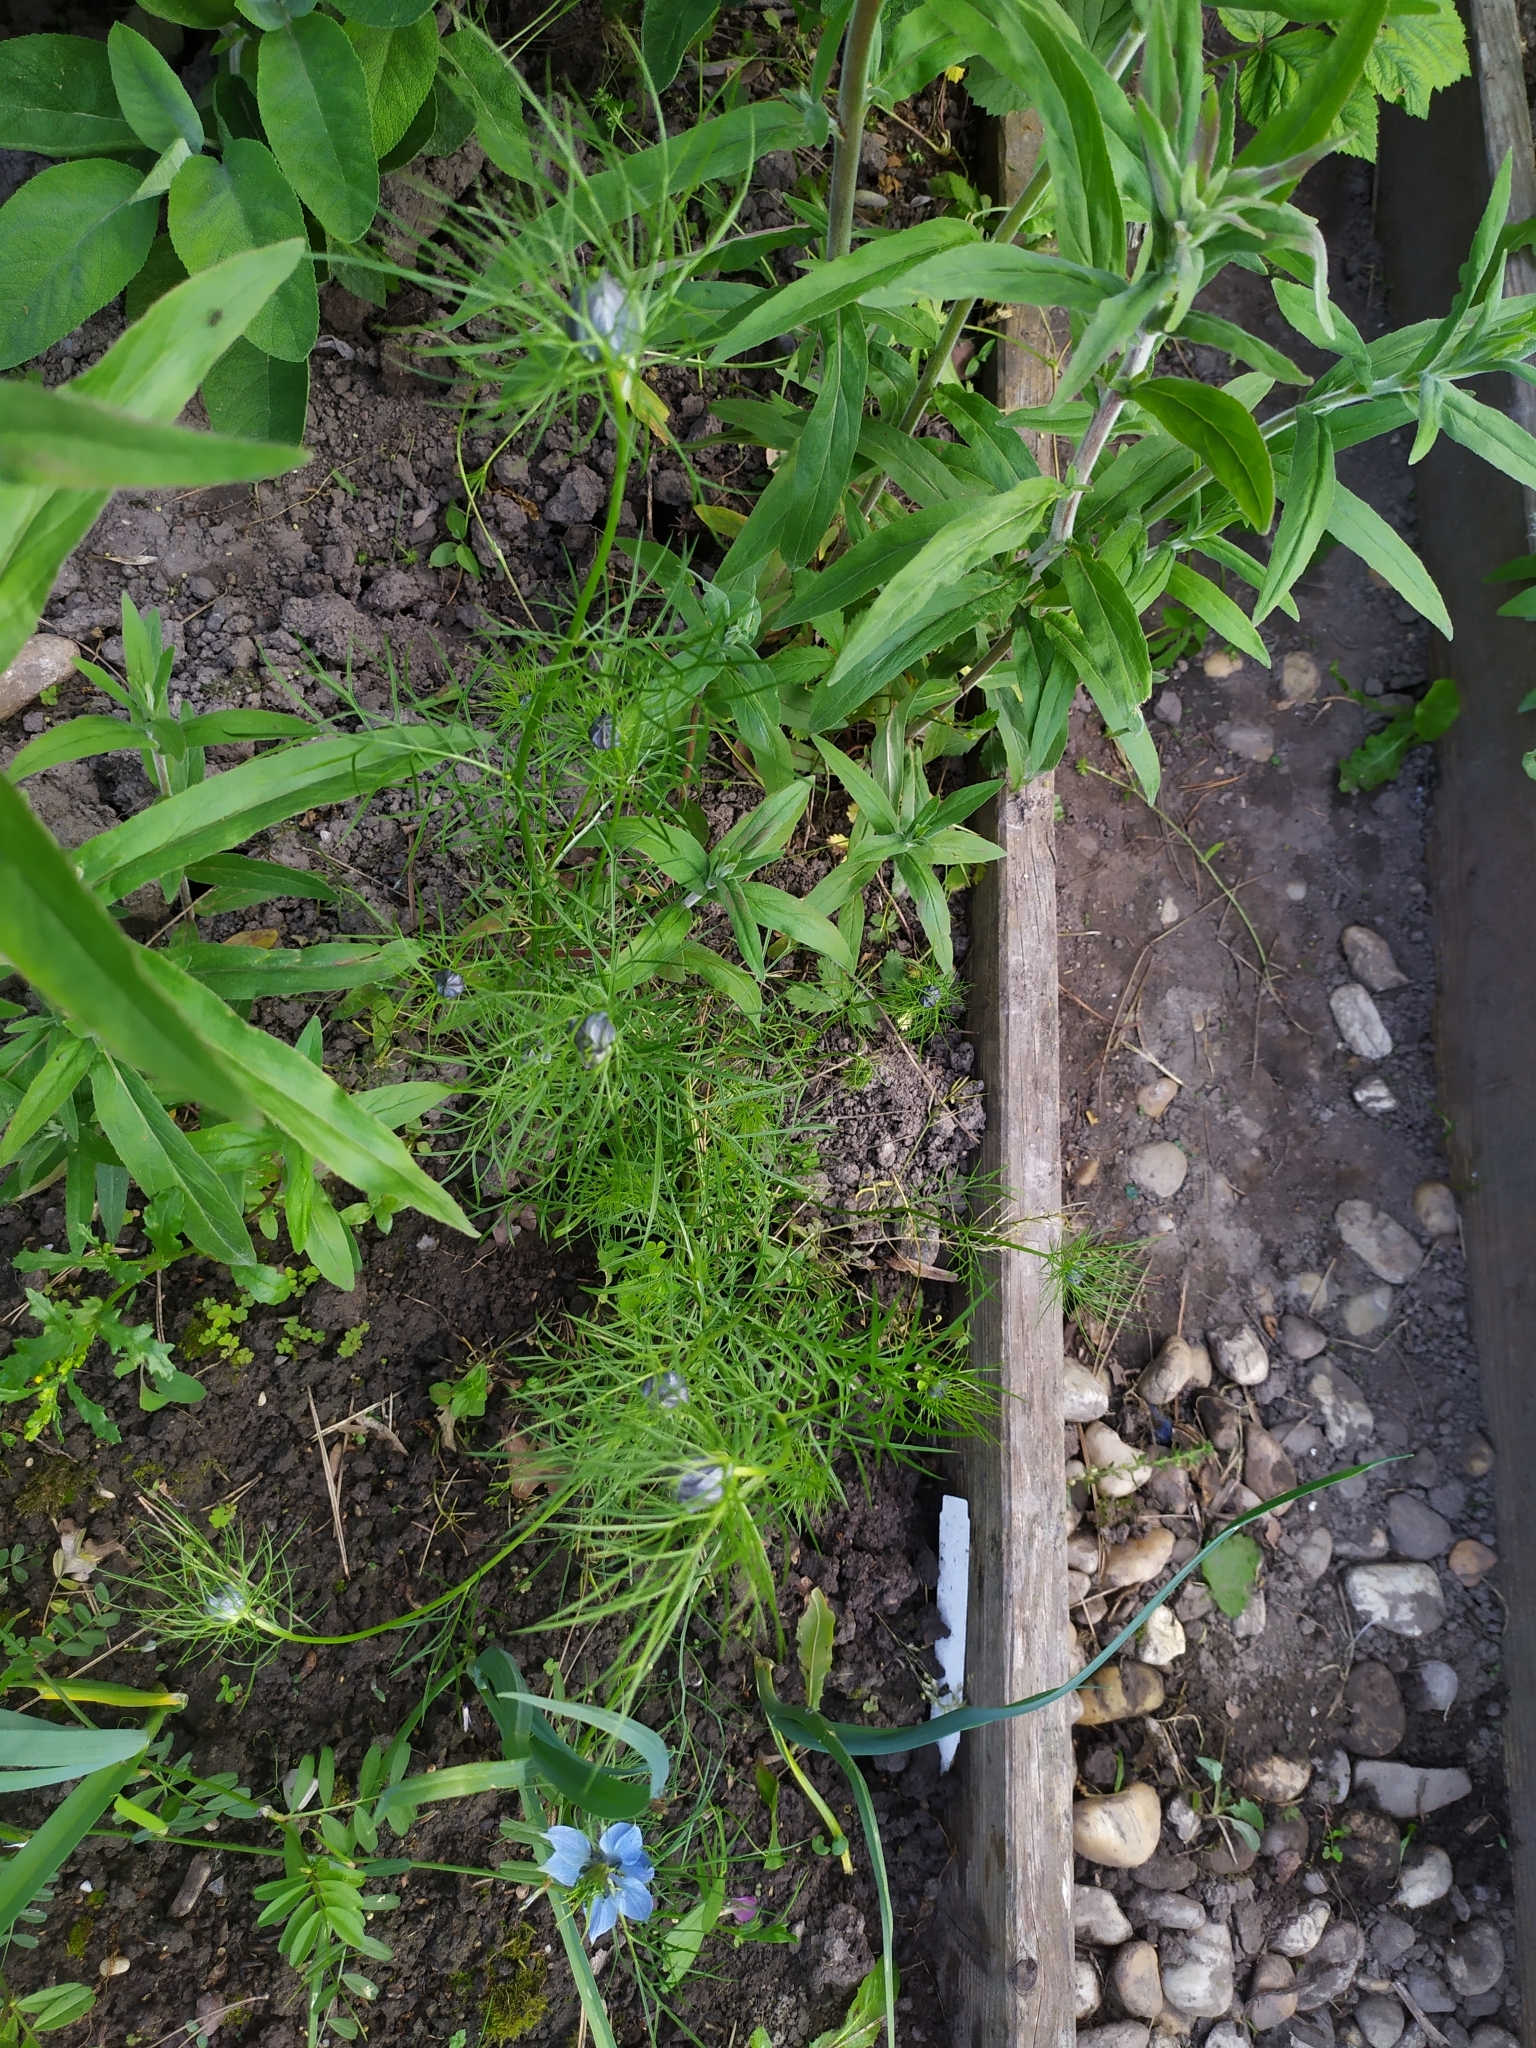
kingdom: Plantae
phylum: Tracheophyta
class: Magnoliopsida
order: Ranunculales
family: Ranunculaceae
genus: Nigella
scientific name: Nigella damascena
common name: Love-in-a-mist
